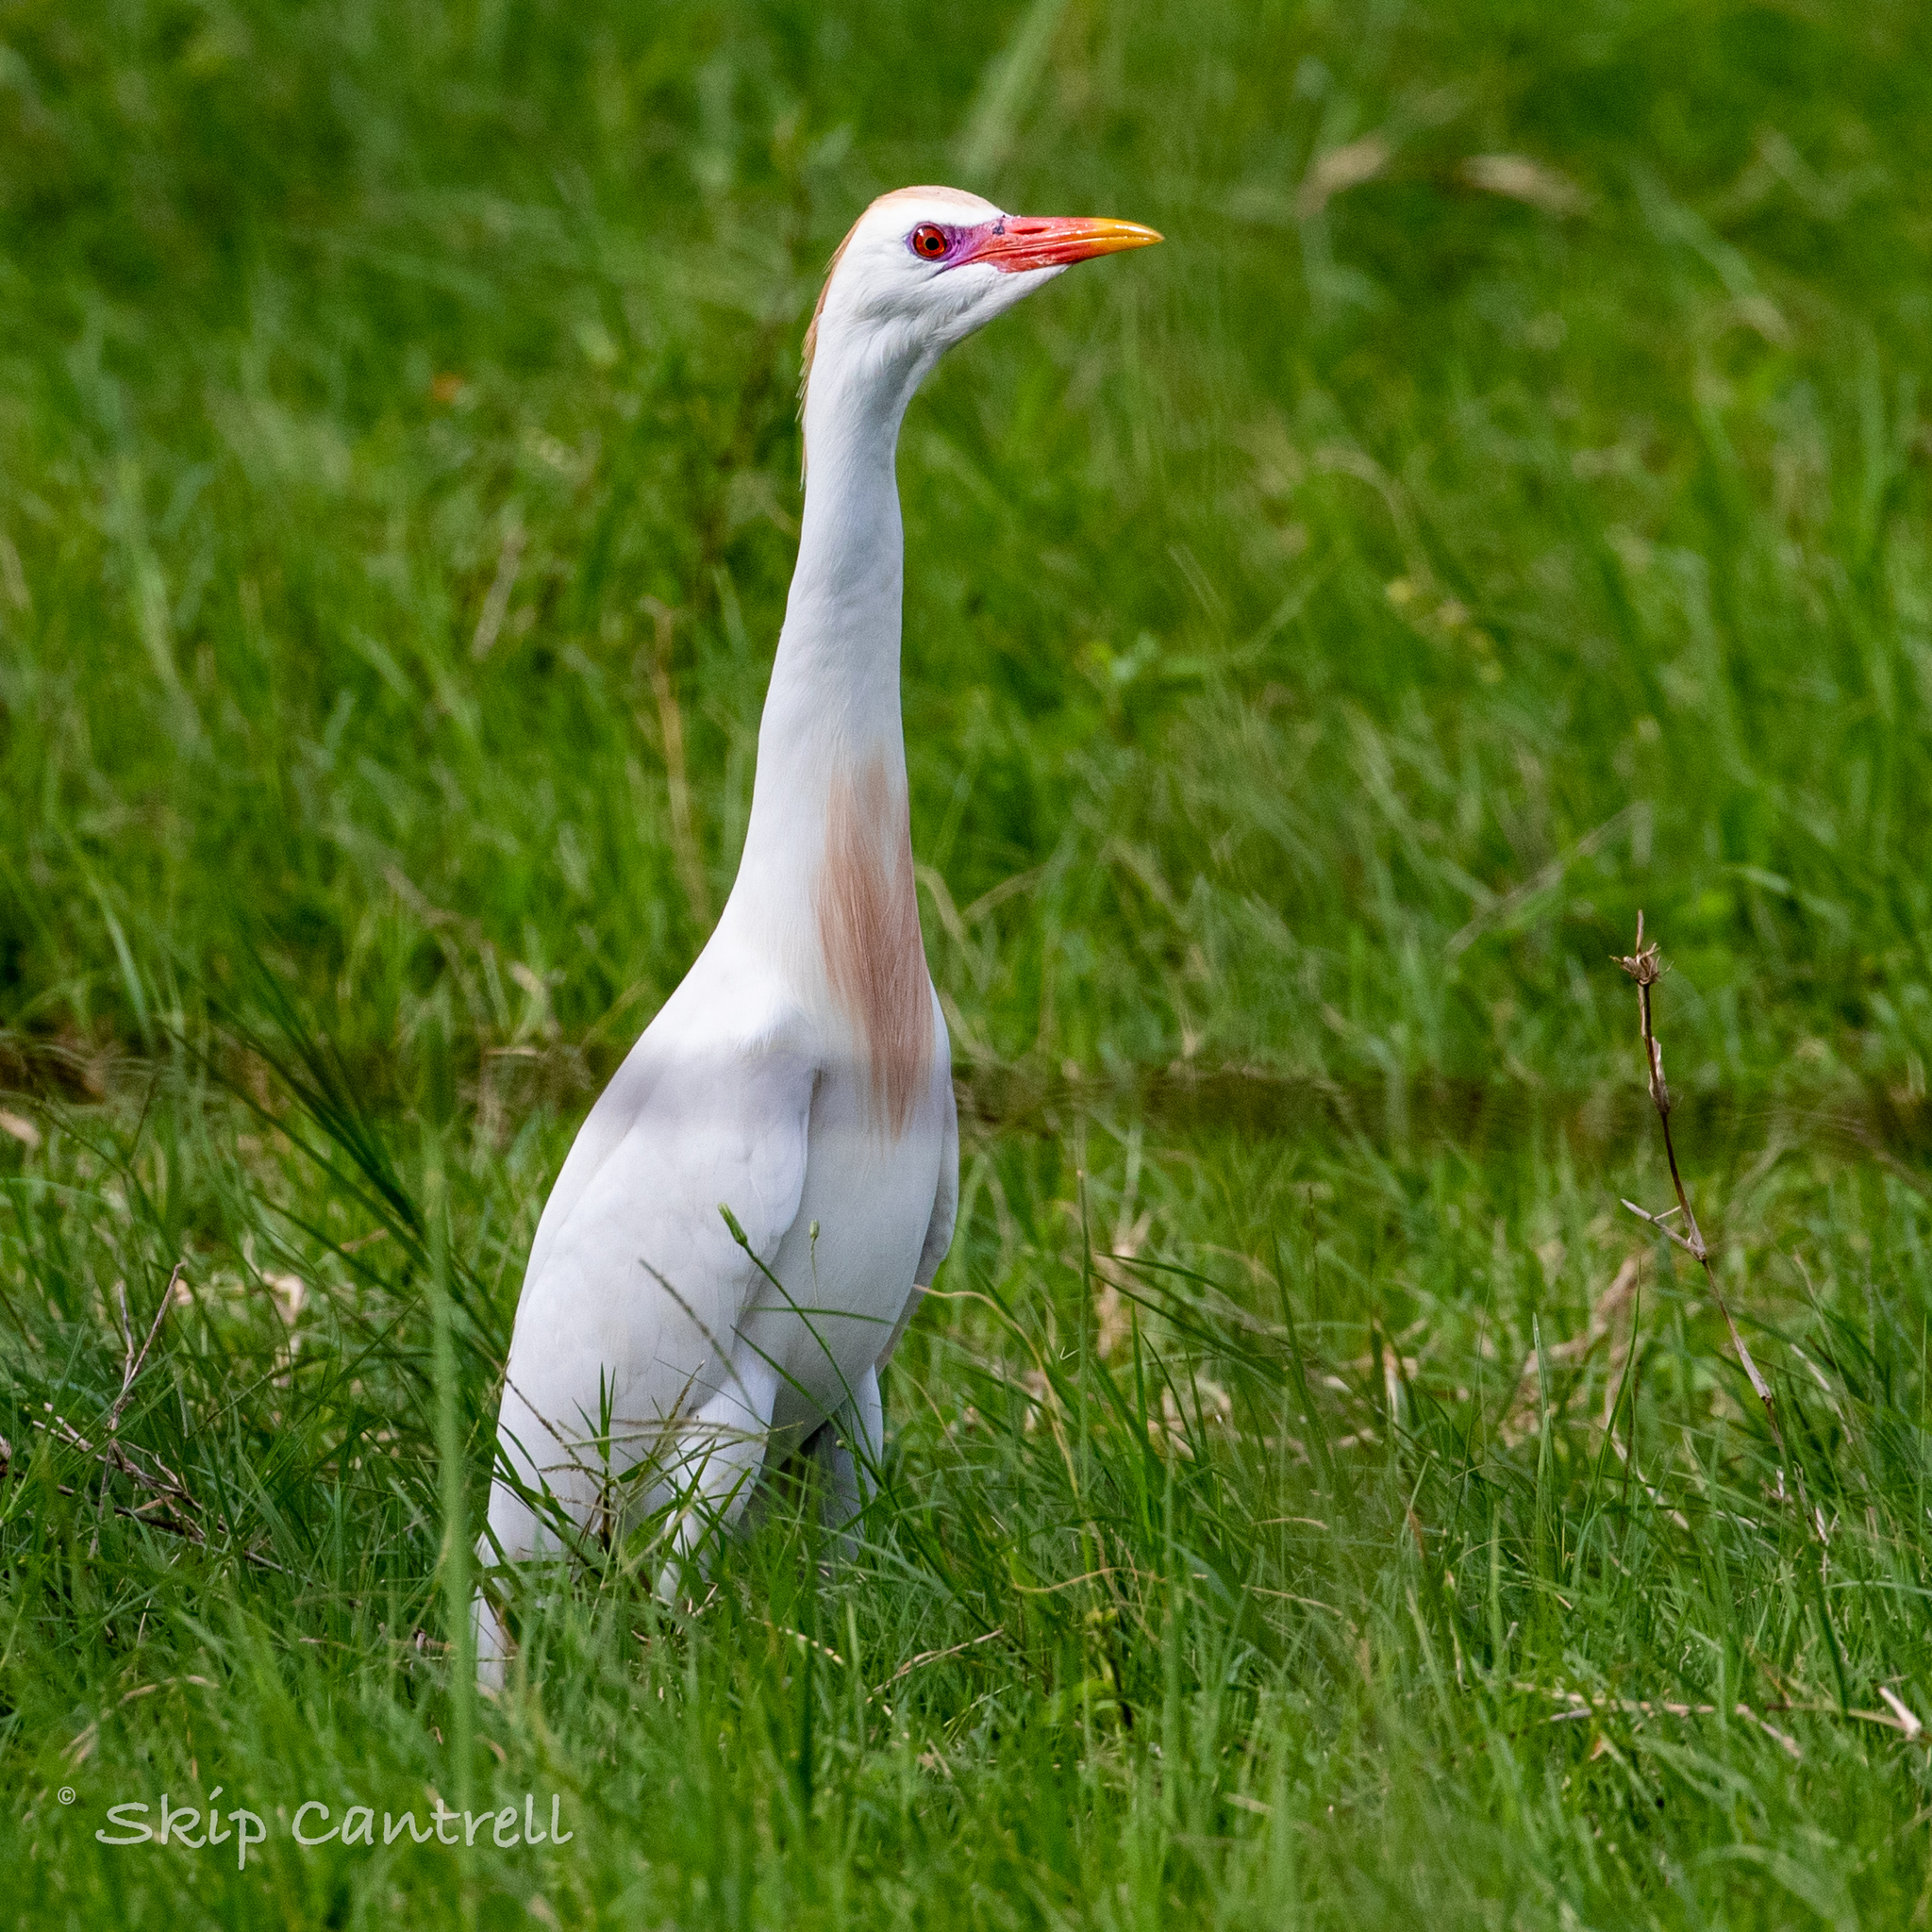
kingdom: Animalia
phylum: Chordata
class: Aves
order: Pelecaniformes
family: Ardeidae
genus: Bubulcus
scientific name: Bubulcus ibis
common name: Cattle egret
